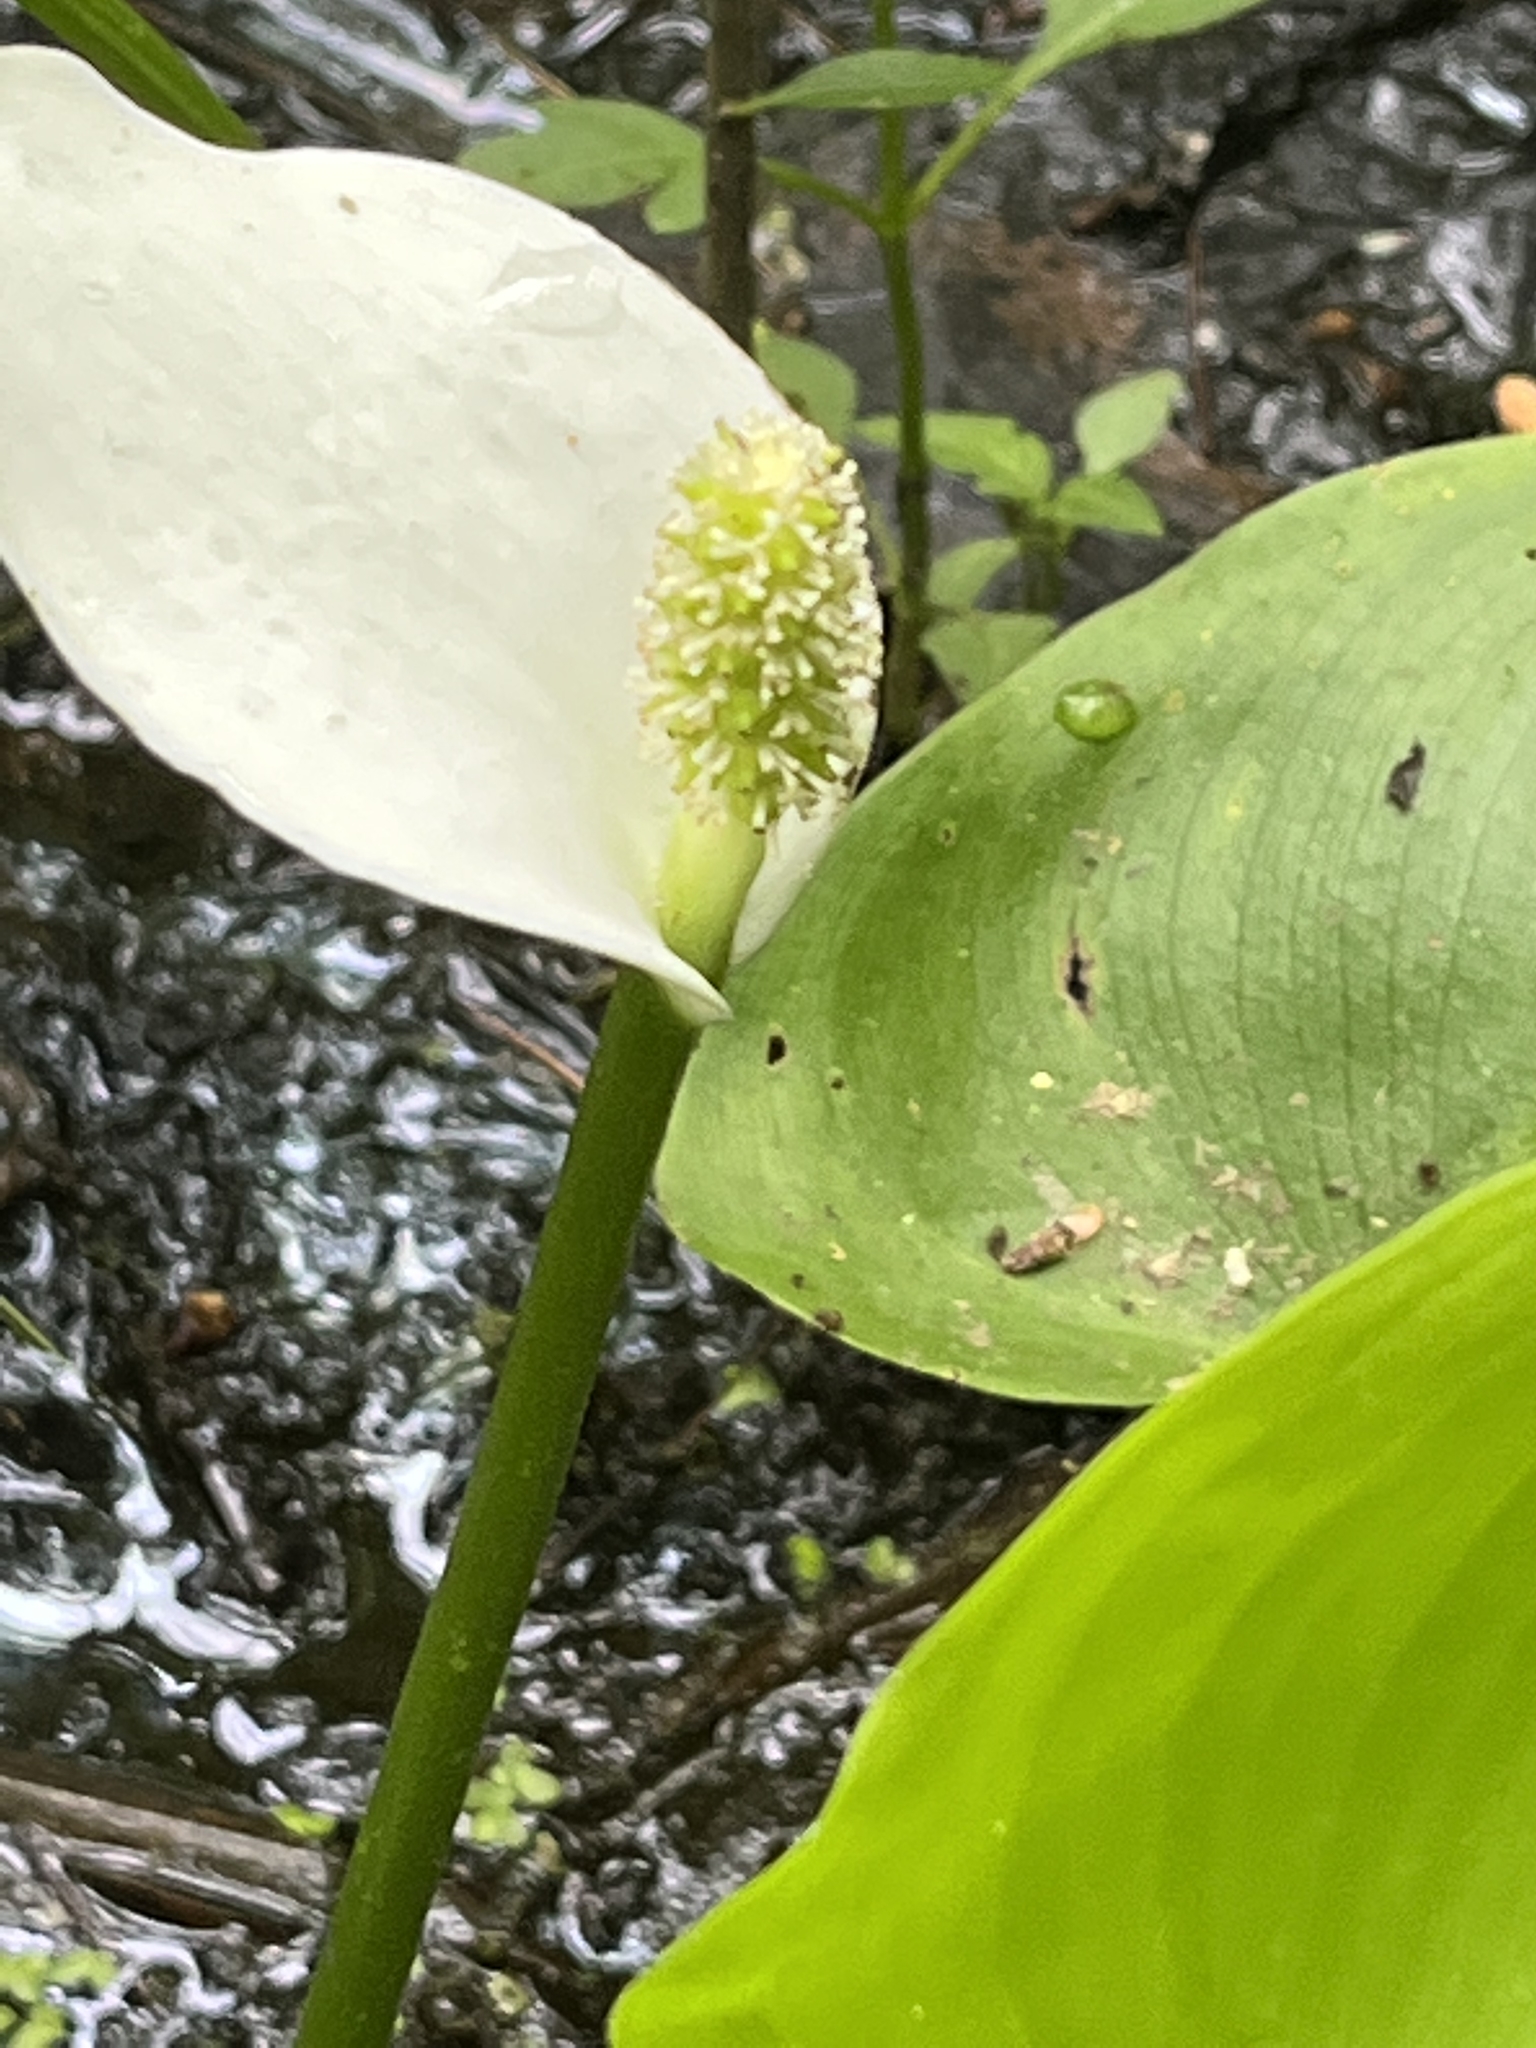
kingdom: Plantae
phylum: Tracheophyta
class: Liliopsida
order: Alismatales
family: Araceae
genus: Calla
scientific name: Calla palustris
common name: Bog arum
